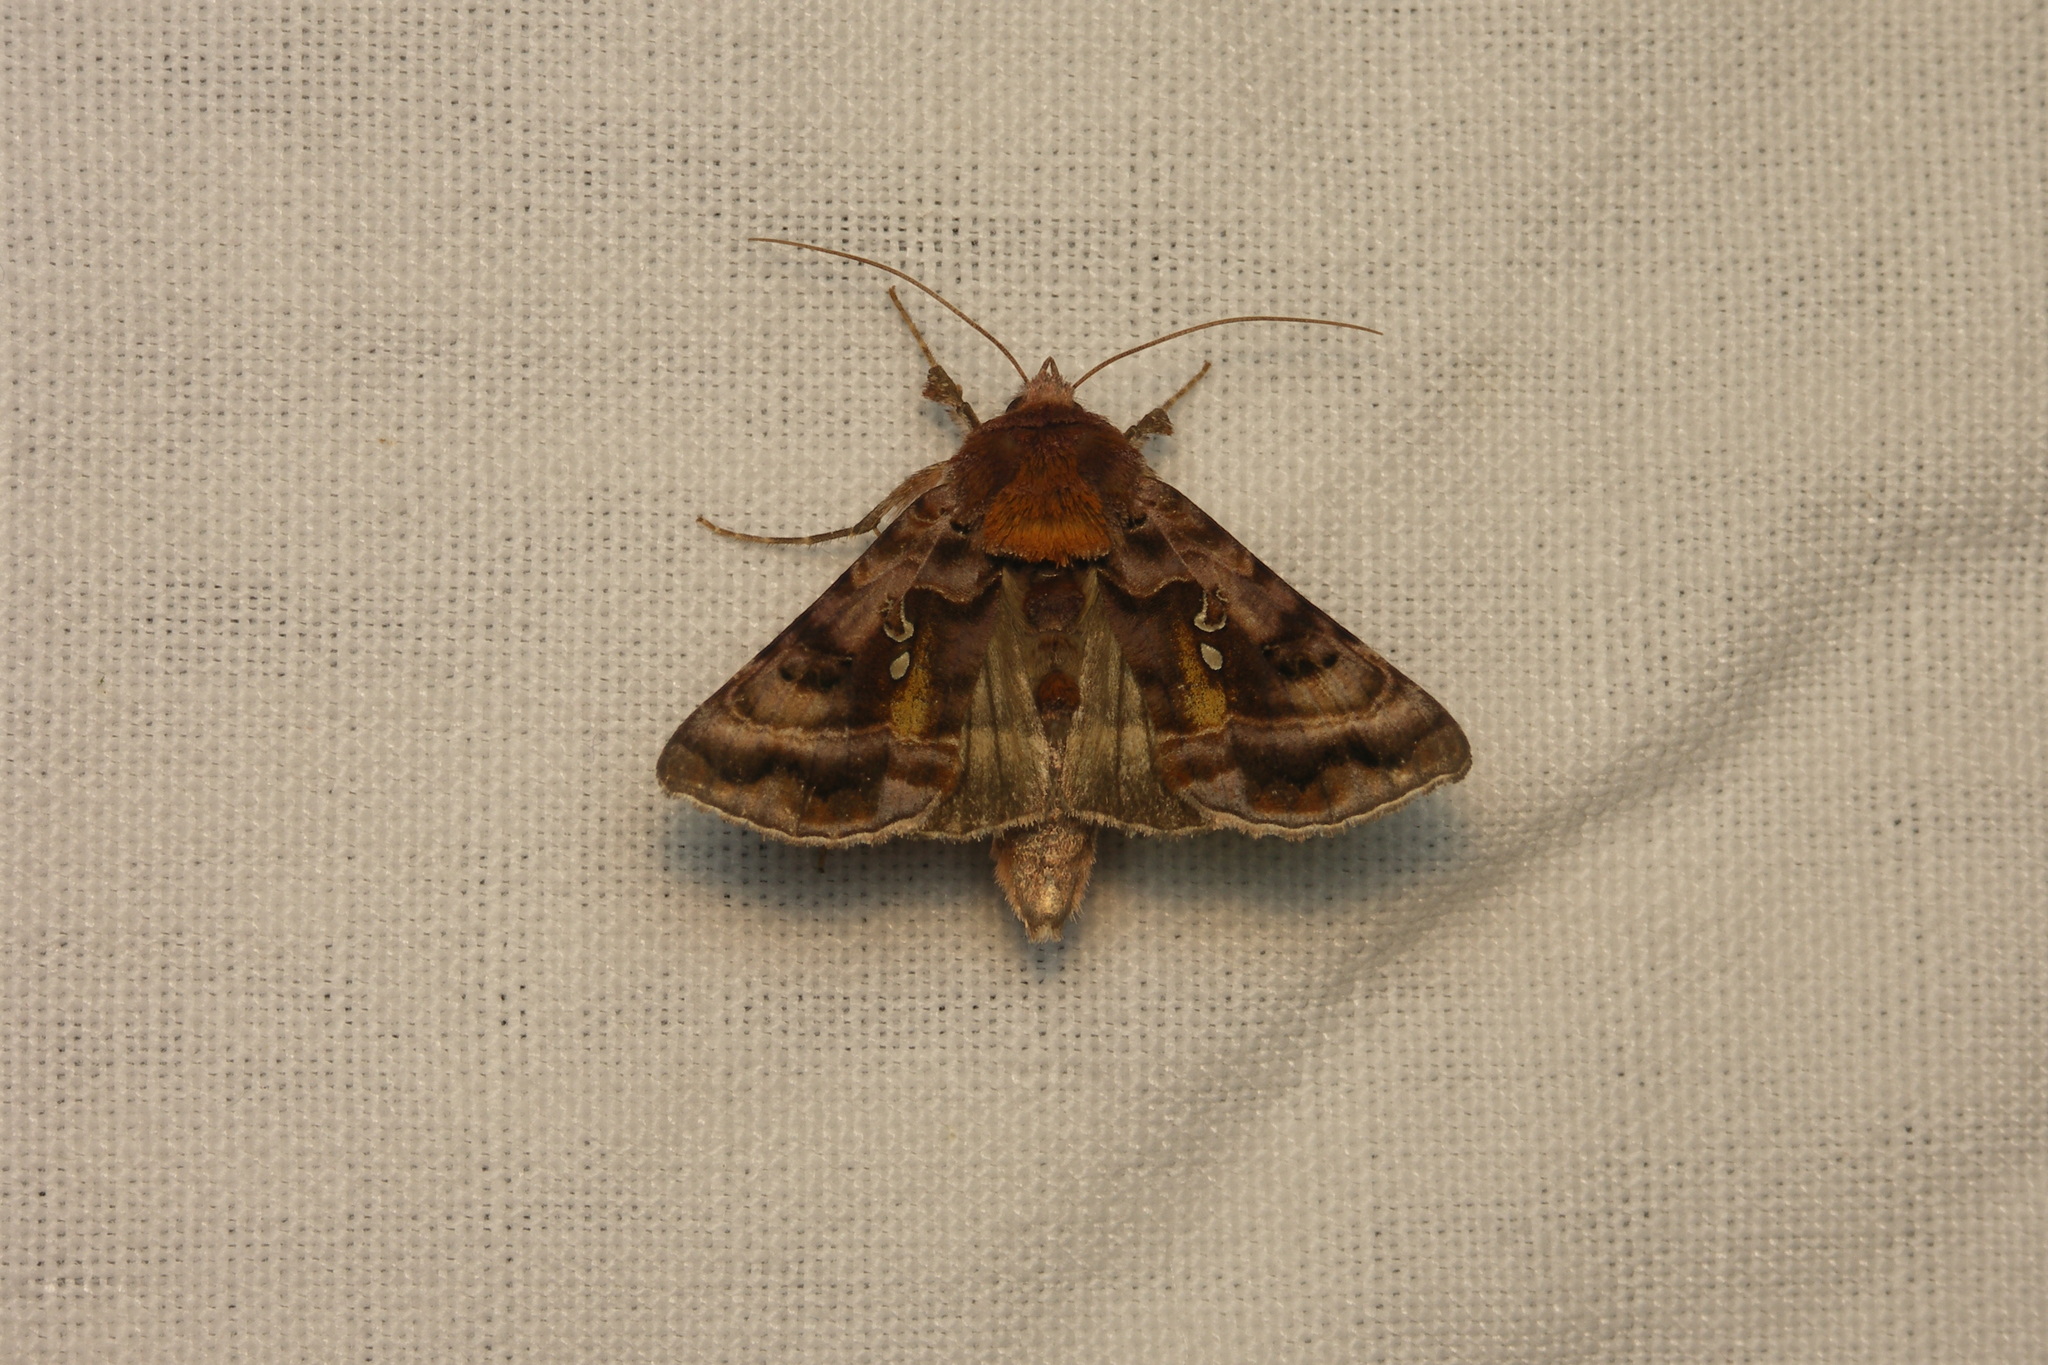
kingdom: Animalia
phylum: Arthropoda
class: Insecta
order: Lepidoptera
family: Noctuidae
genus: Autographa
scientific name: Autographa pulchrina
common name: Beautiful golden y
